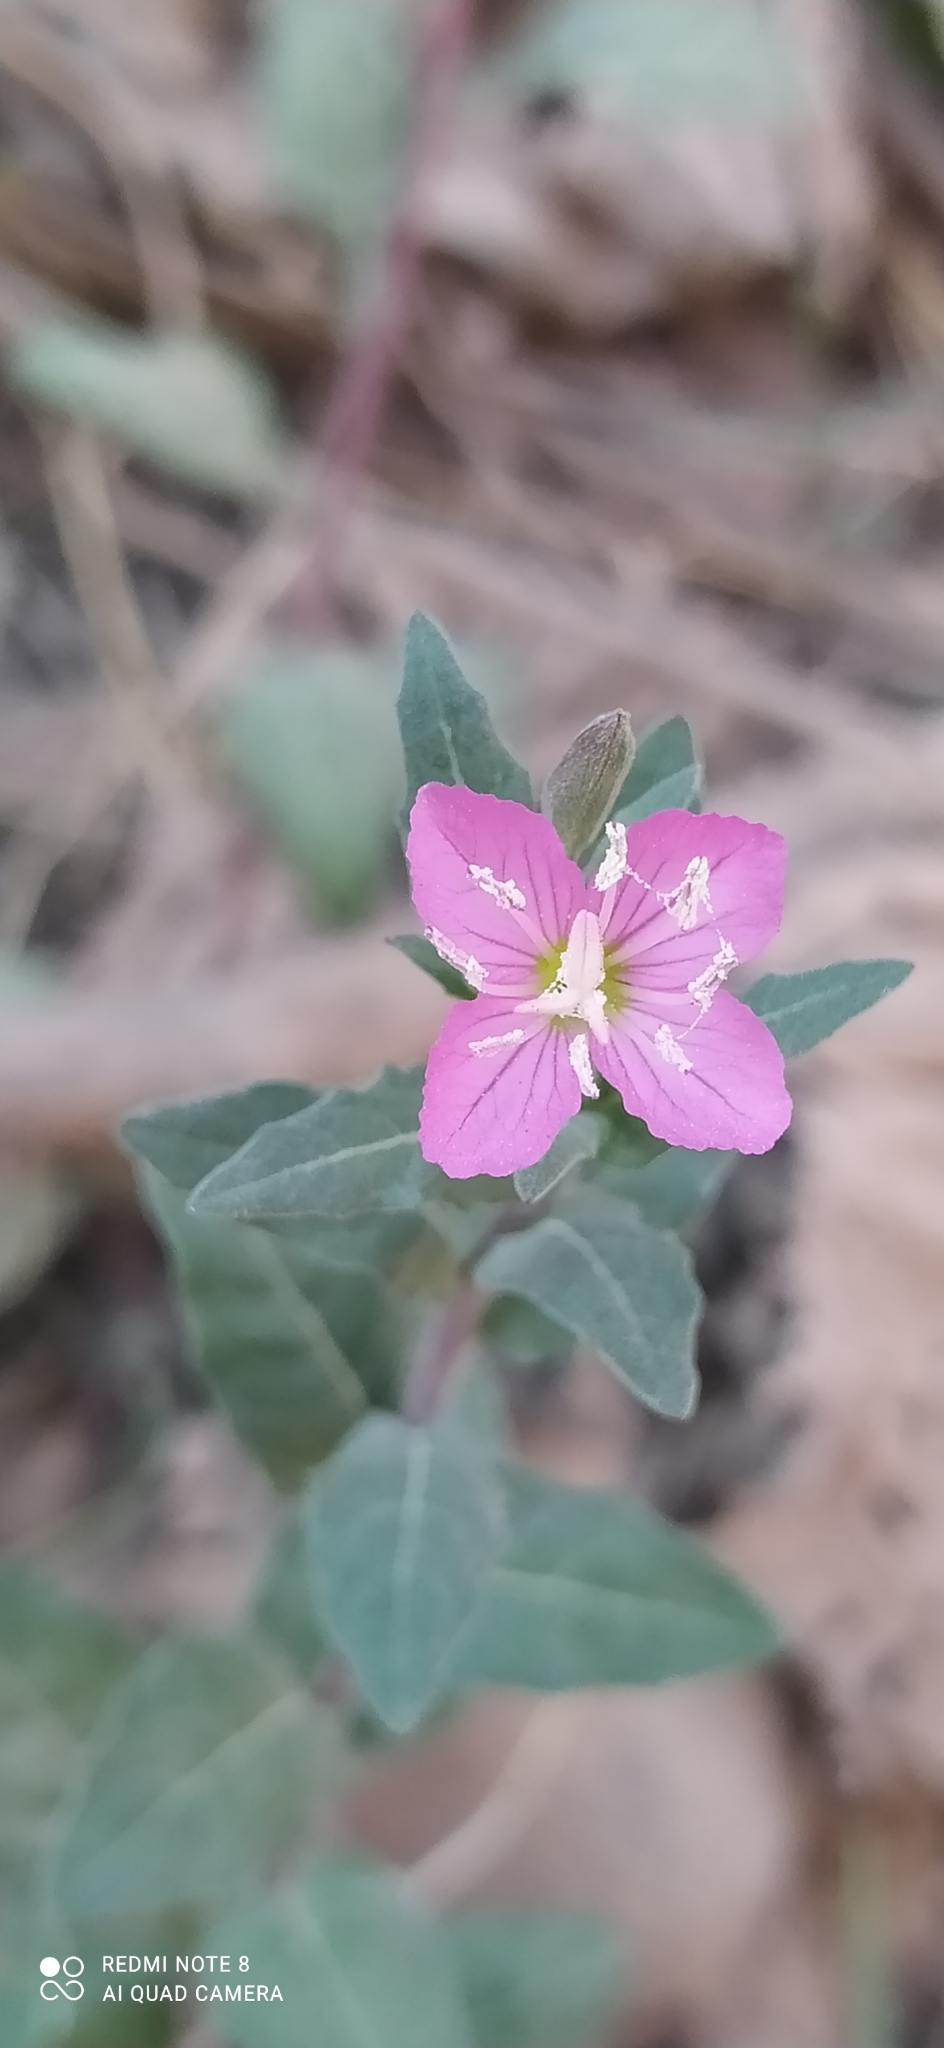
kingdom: Plantae
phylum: Tracheophyta
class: Magnoliopsida
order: Myrtales
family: Onagraceae
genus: Oenothera
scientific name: Oenothera rosea
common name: Rosy evening-primrose
